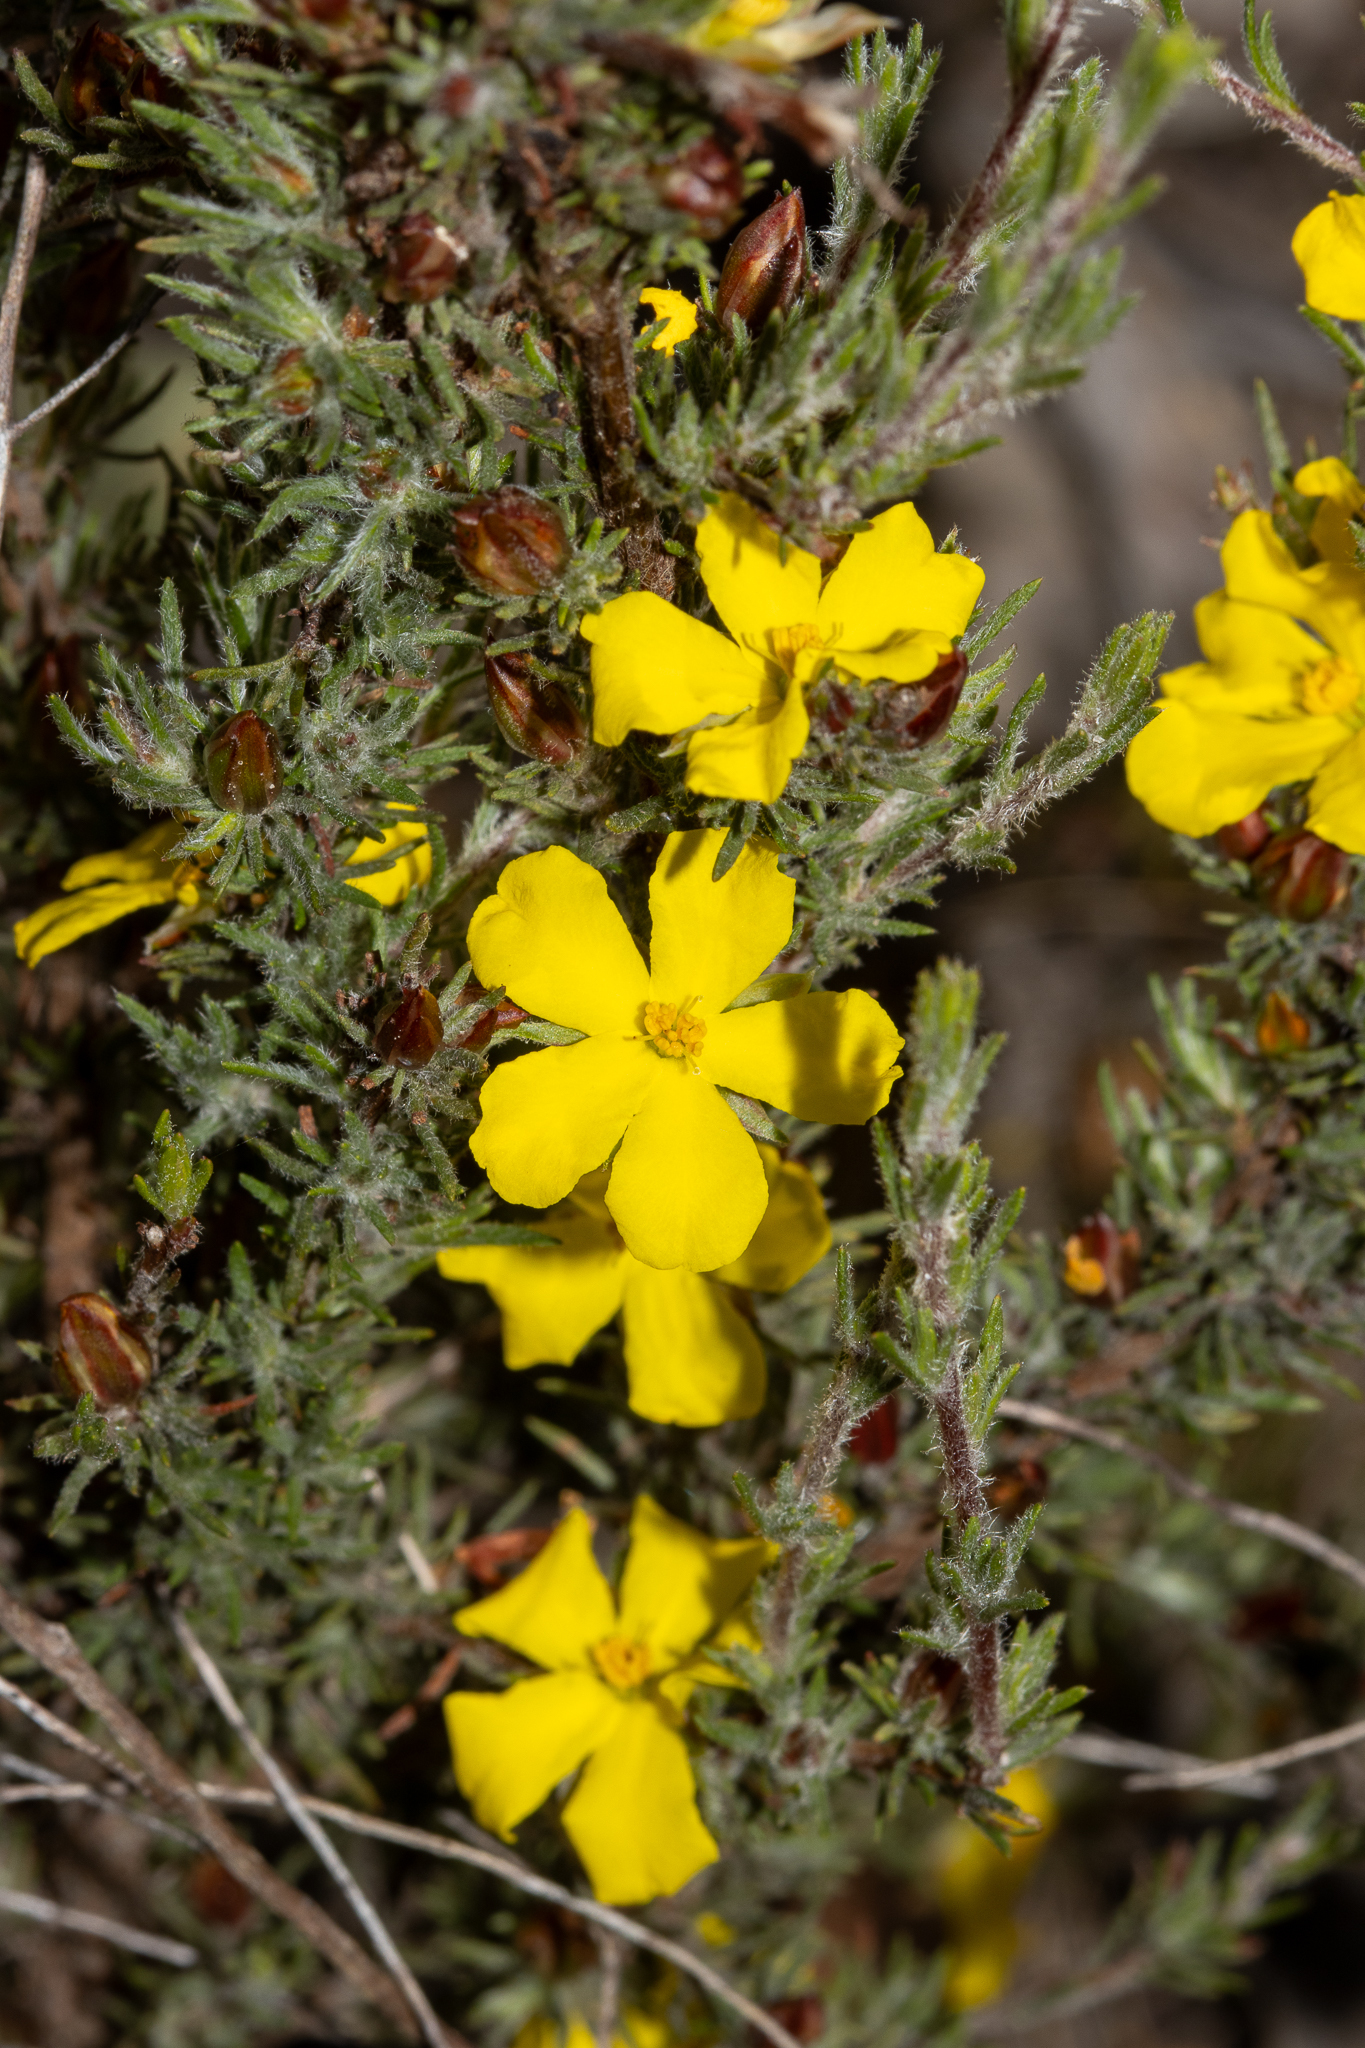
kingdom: Plantae
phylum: Tracheophyta
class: Magnoliopsida
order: Dilleniales
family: Dilleniaceae
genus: Hibbertia
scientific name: Hibbertia fasciculata
